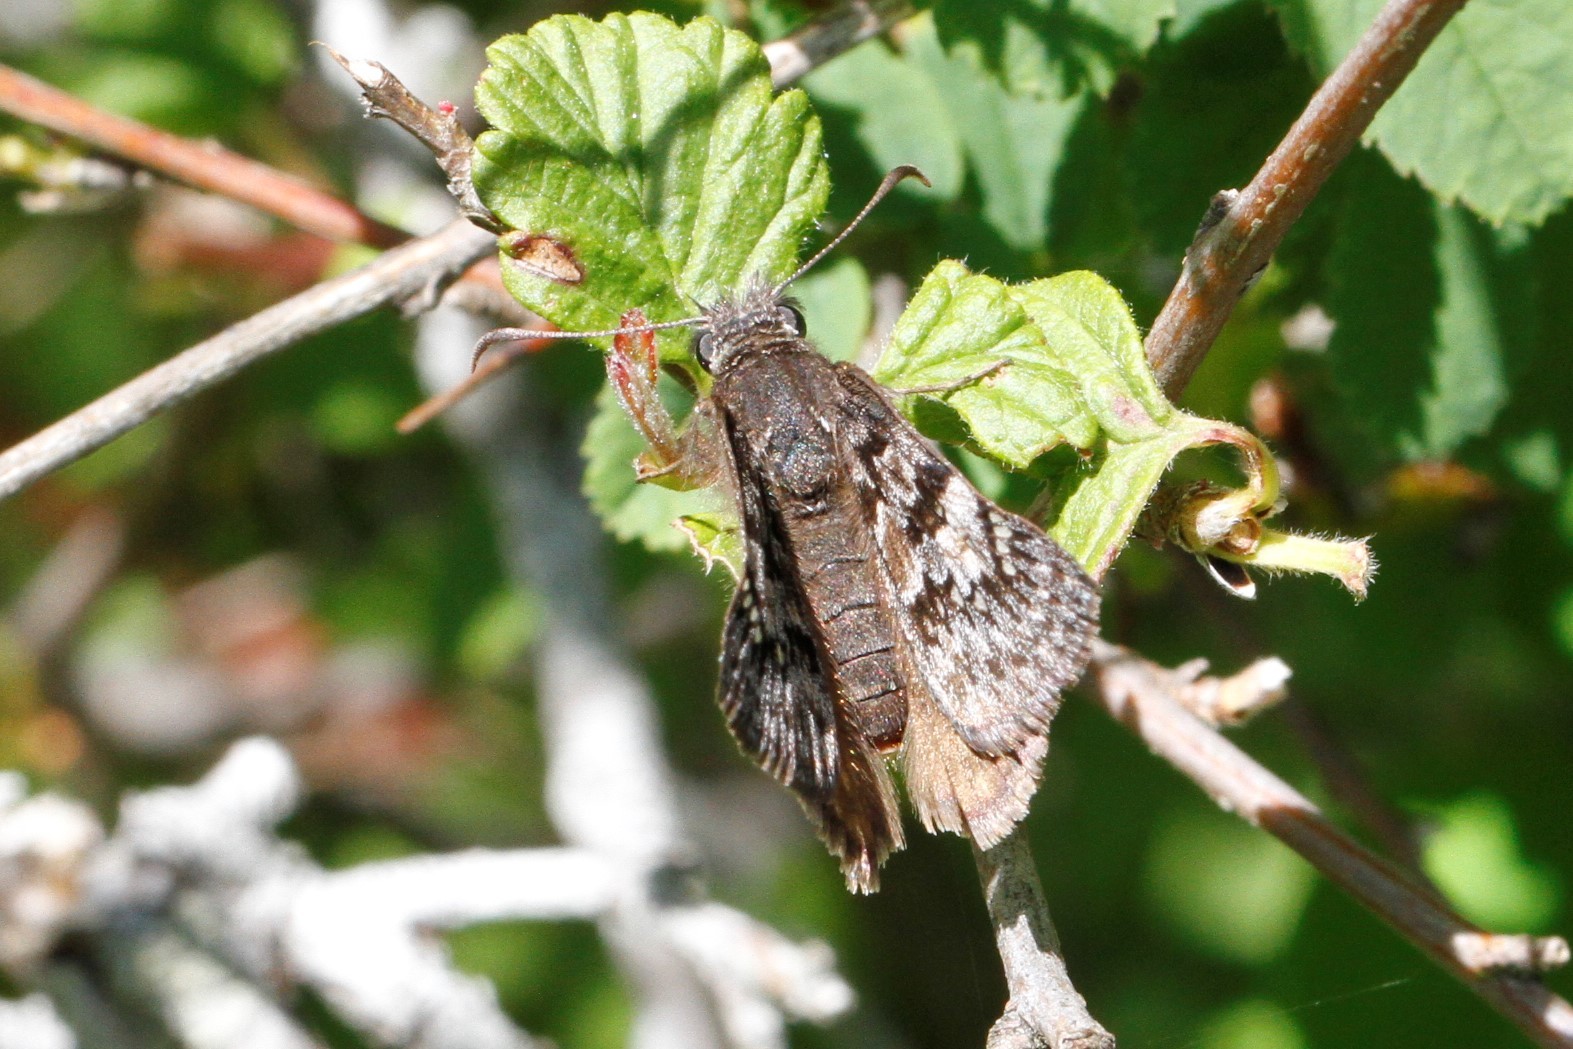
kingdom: Animalia
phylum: Arthropoda
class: Insecta
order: Lepidoptera
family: Hesperiidae
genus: Erynnis
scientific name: Erynnis propertius
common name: Propertius duskywing
